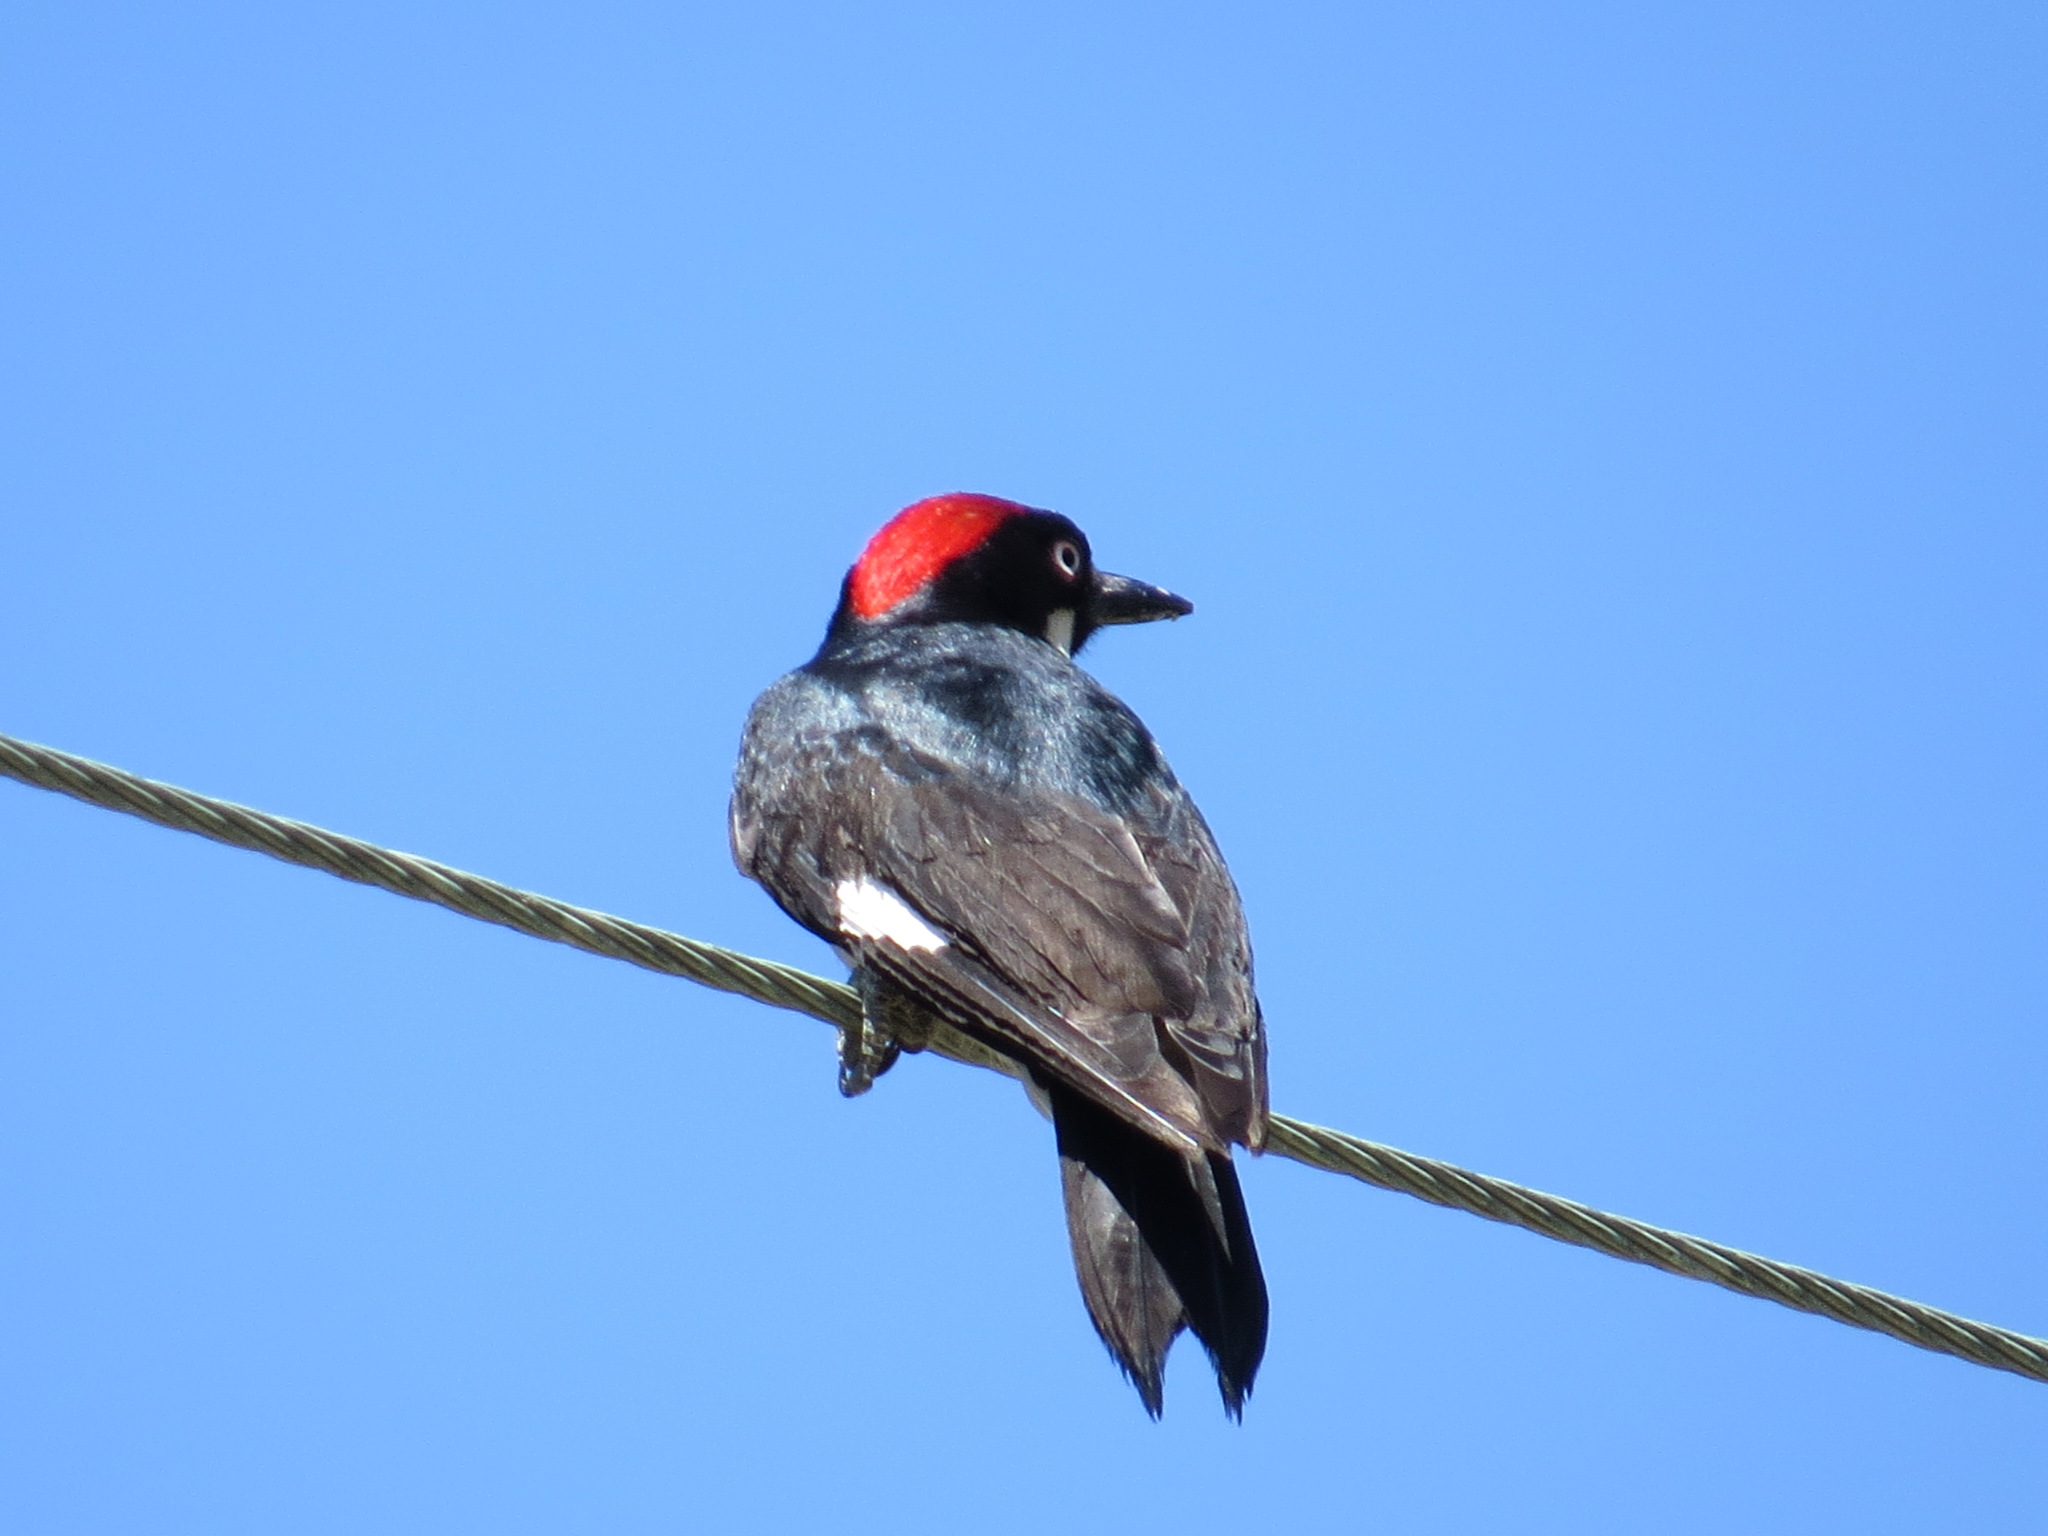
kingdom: Animalia
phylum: Chordata
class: Aves
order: Piciformes
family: Picidae
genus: Melanerpes
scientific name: Melanerpes formicivorus
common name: Acorn woodpecker
